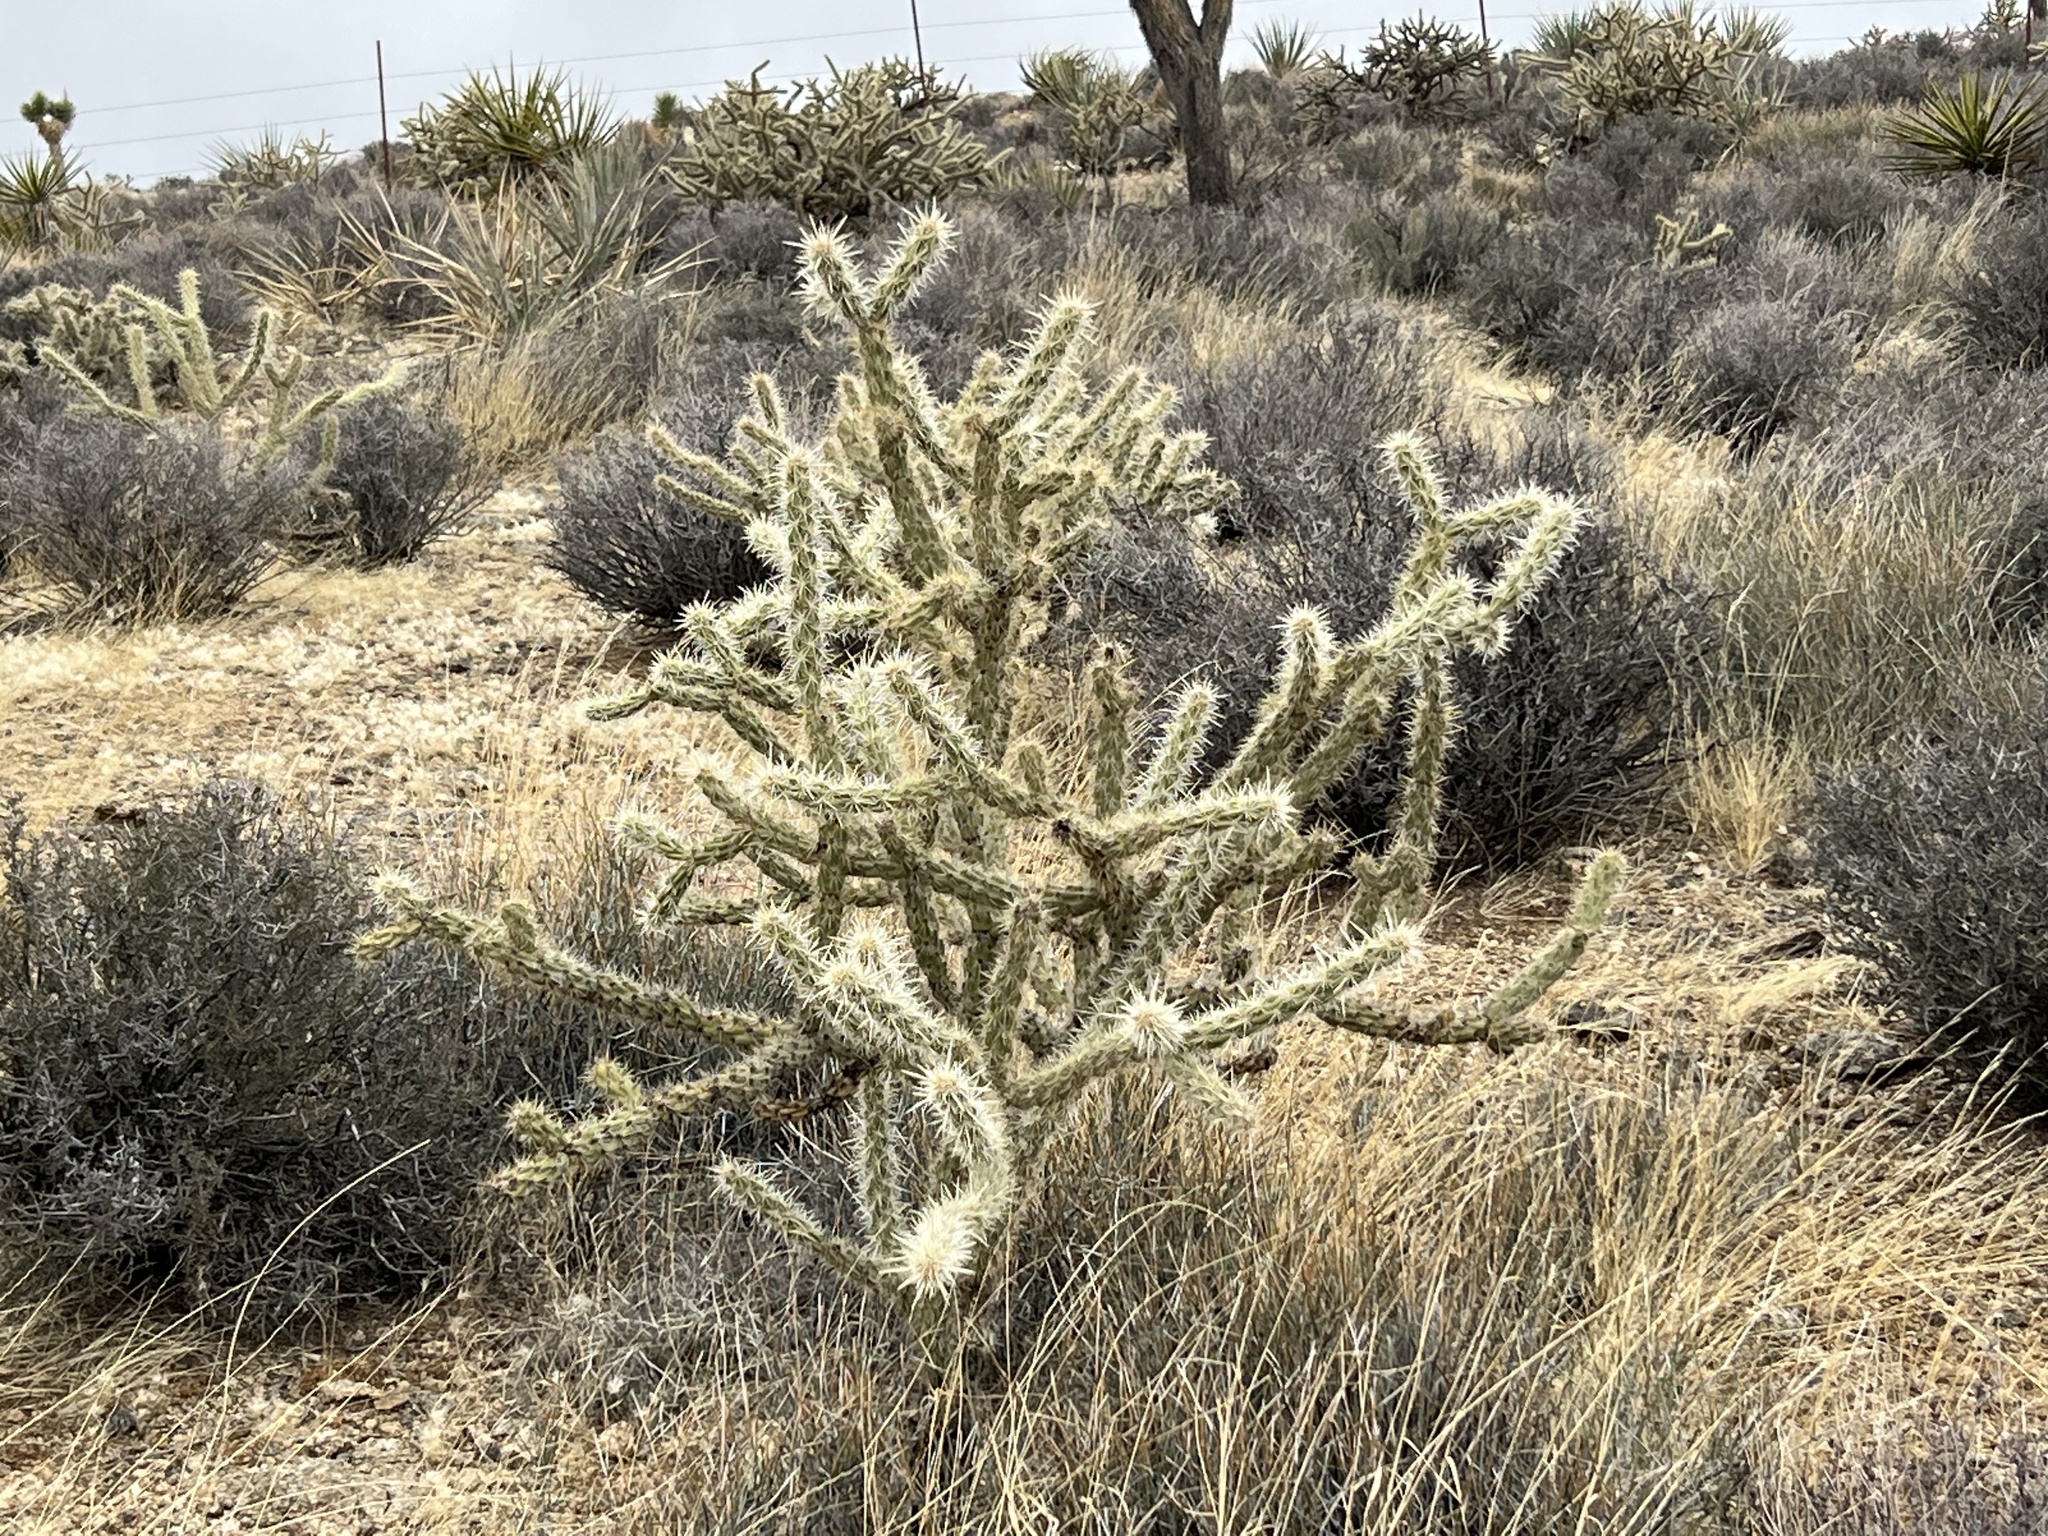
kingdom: Plantae
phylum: Tracheophyta
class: Magnoliopsida
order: Caryophyllales
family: Cactaceae
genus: Cylindropuntia
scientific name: Cylindropuntia acanthocarpa
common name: Buckhorn cholla
